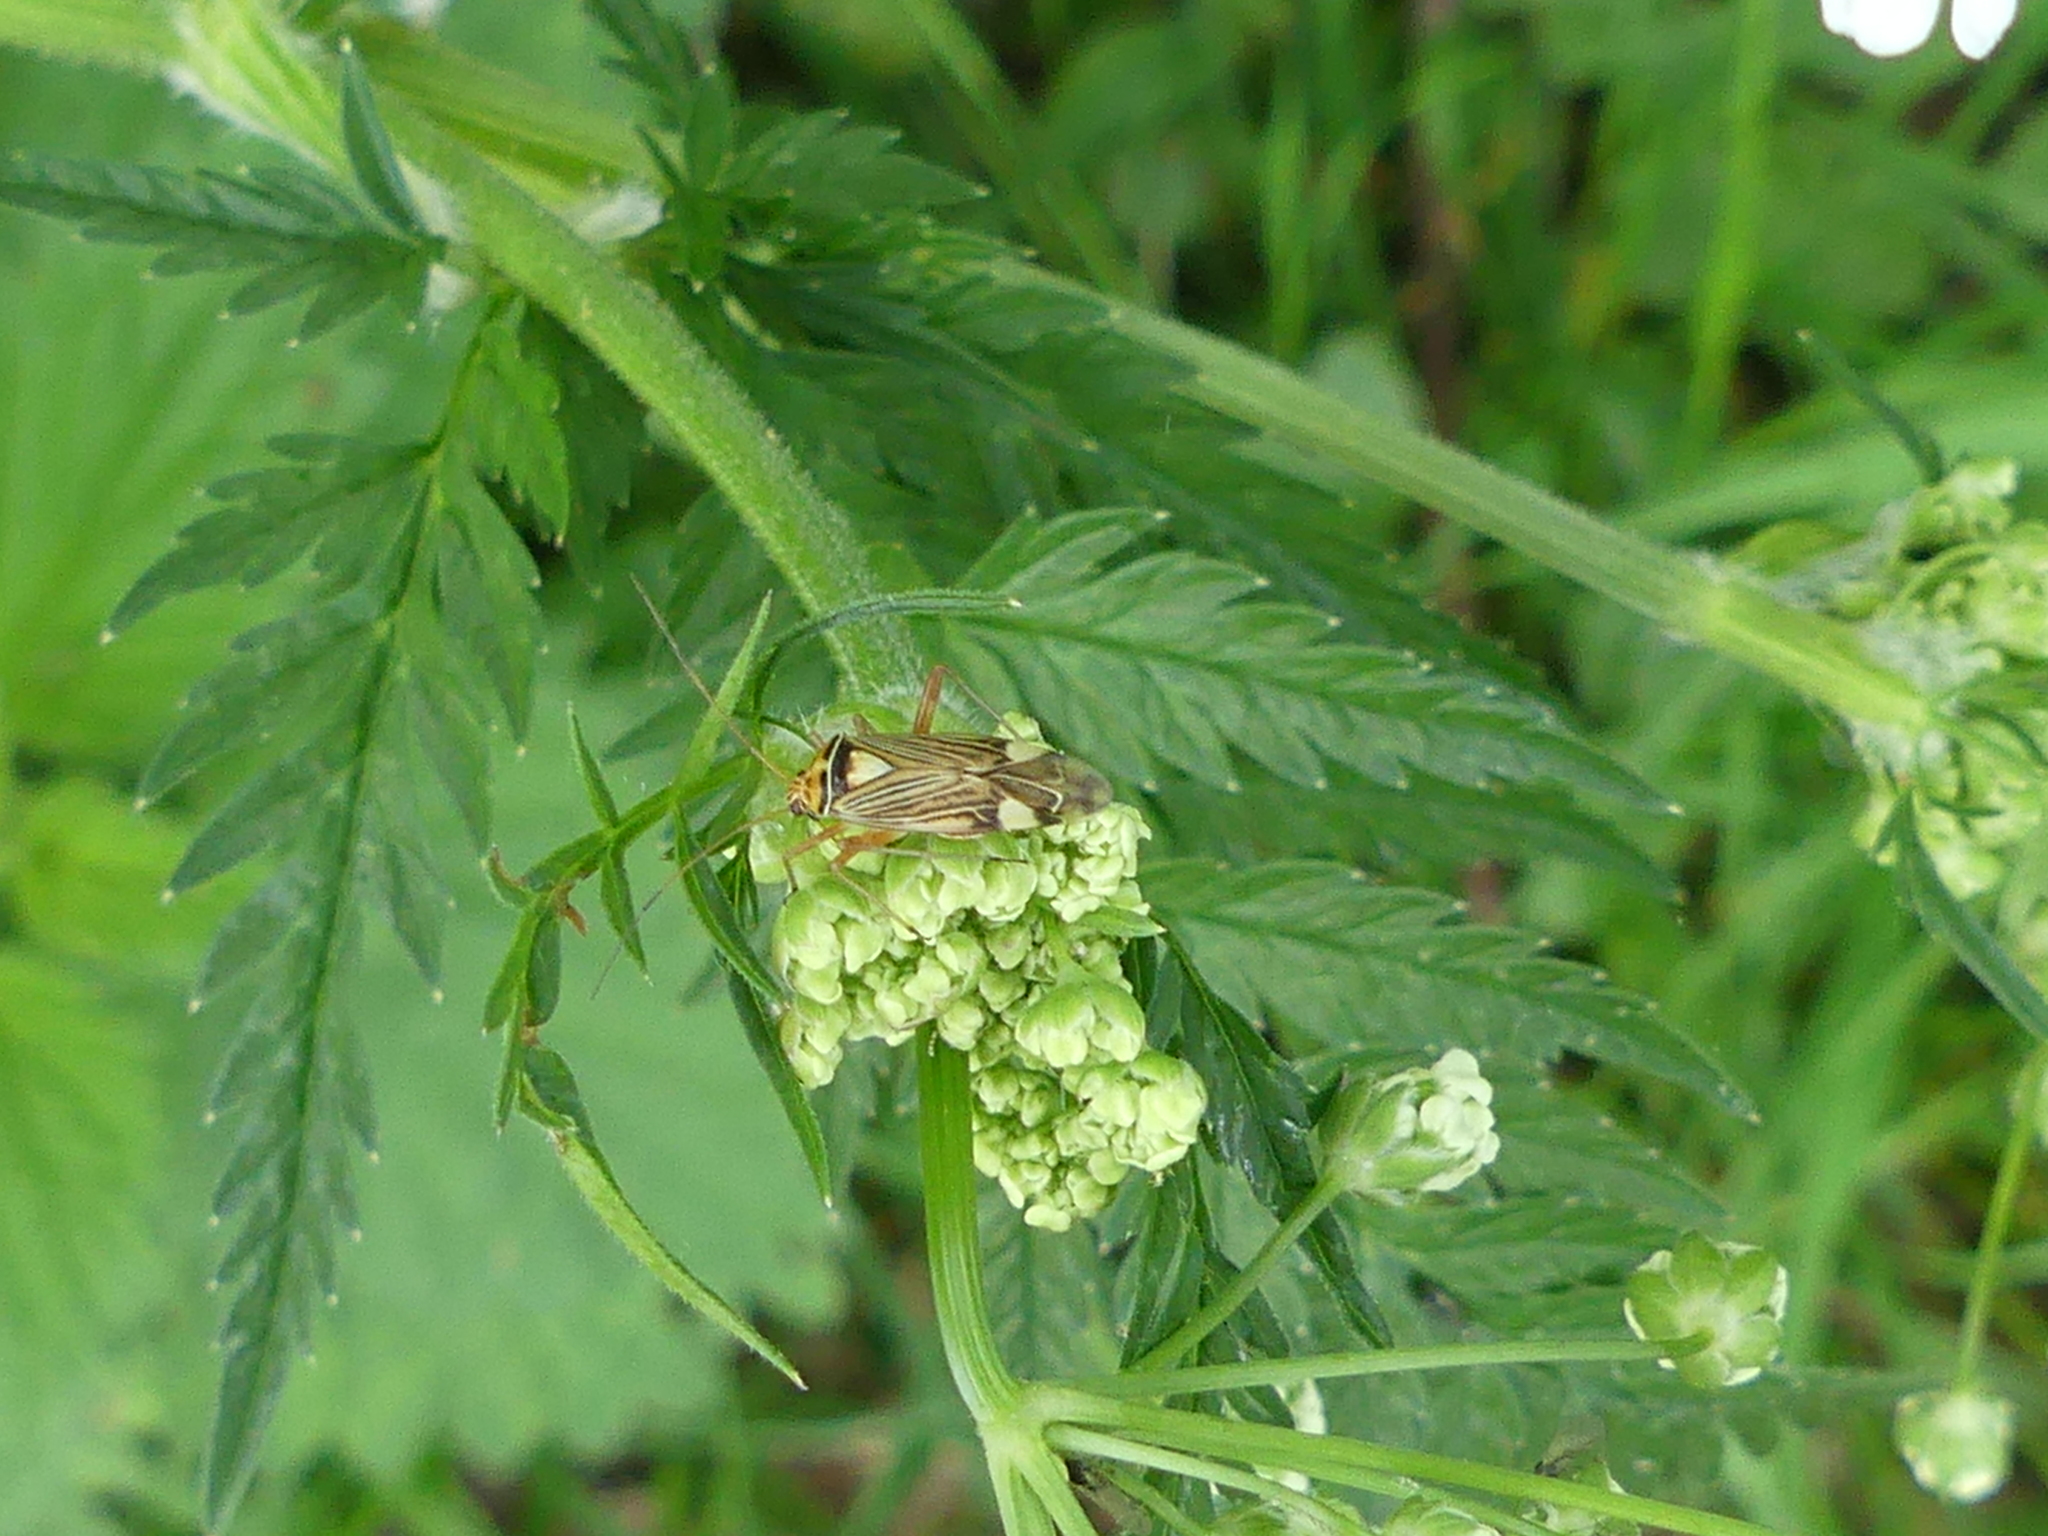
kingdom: Animalia
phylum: Arthropoda
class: Insecta
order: Hemiptera
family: Miridae
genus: Rhabdomiris
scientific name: Rhabdomiris striatellus
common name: Plant bug
